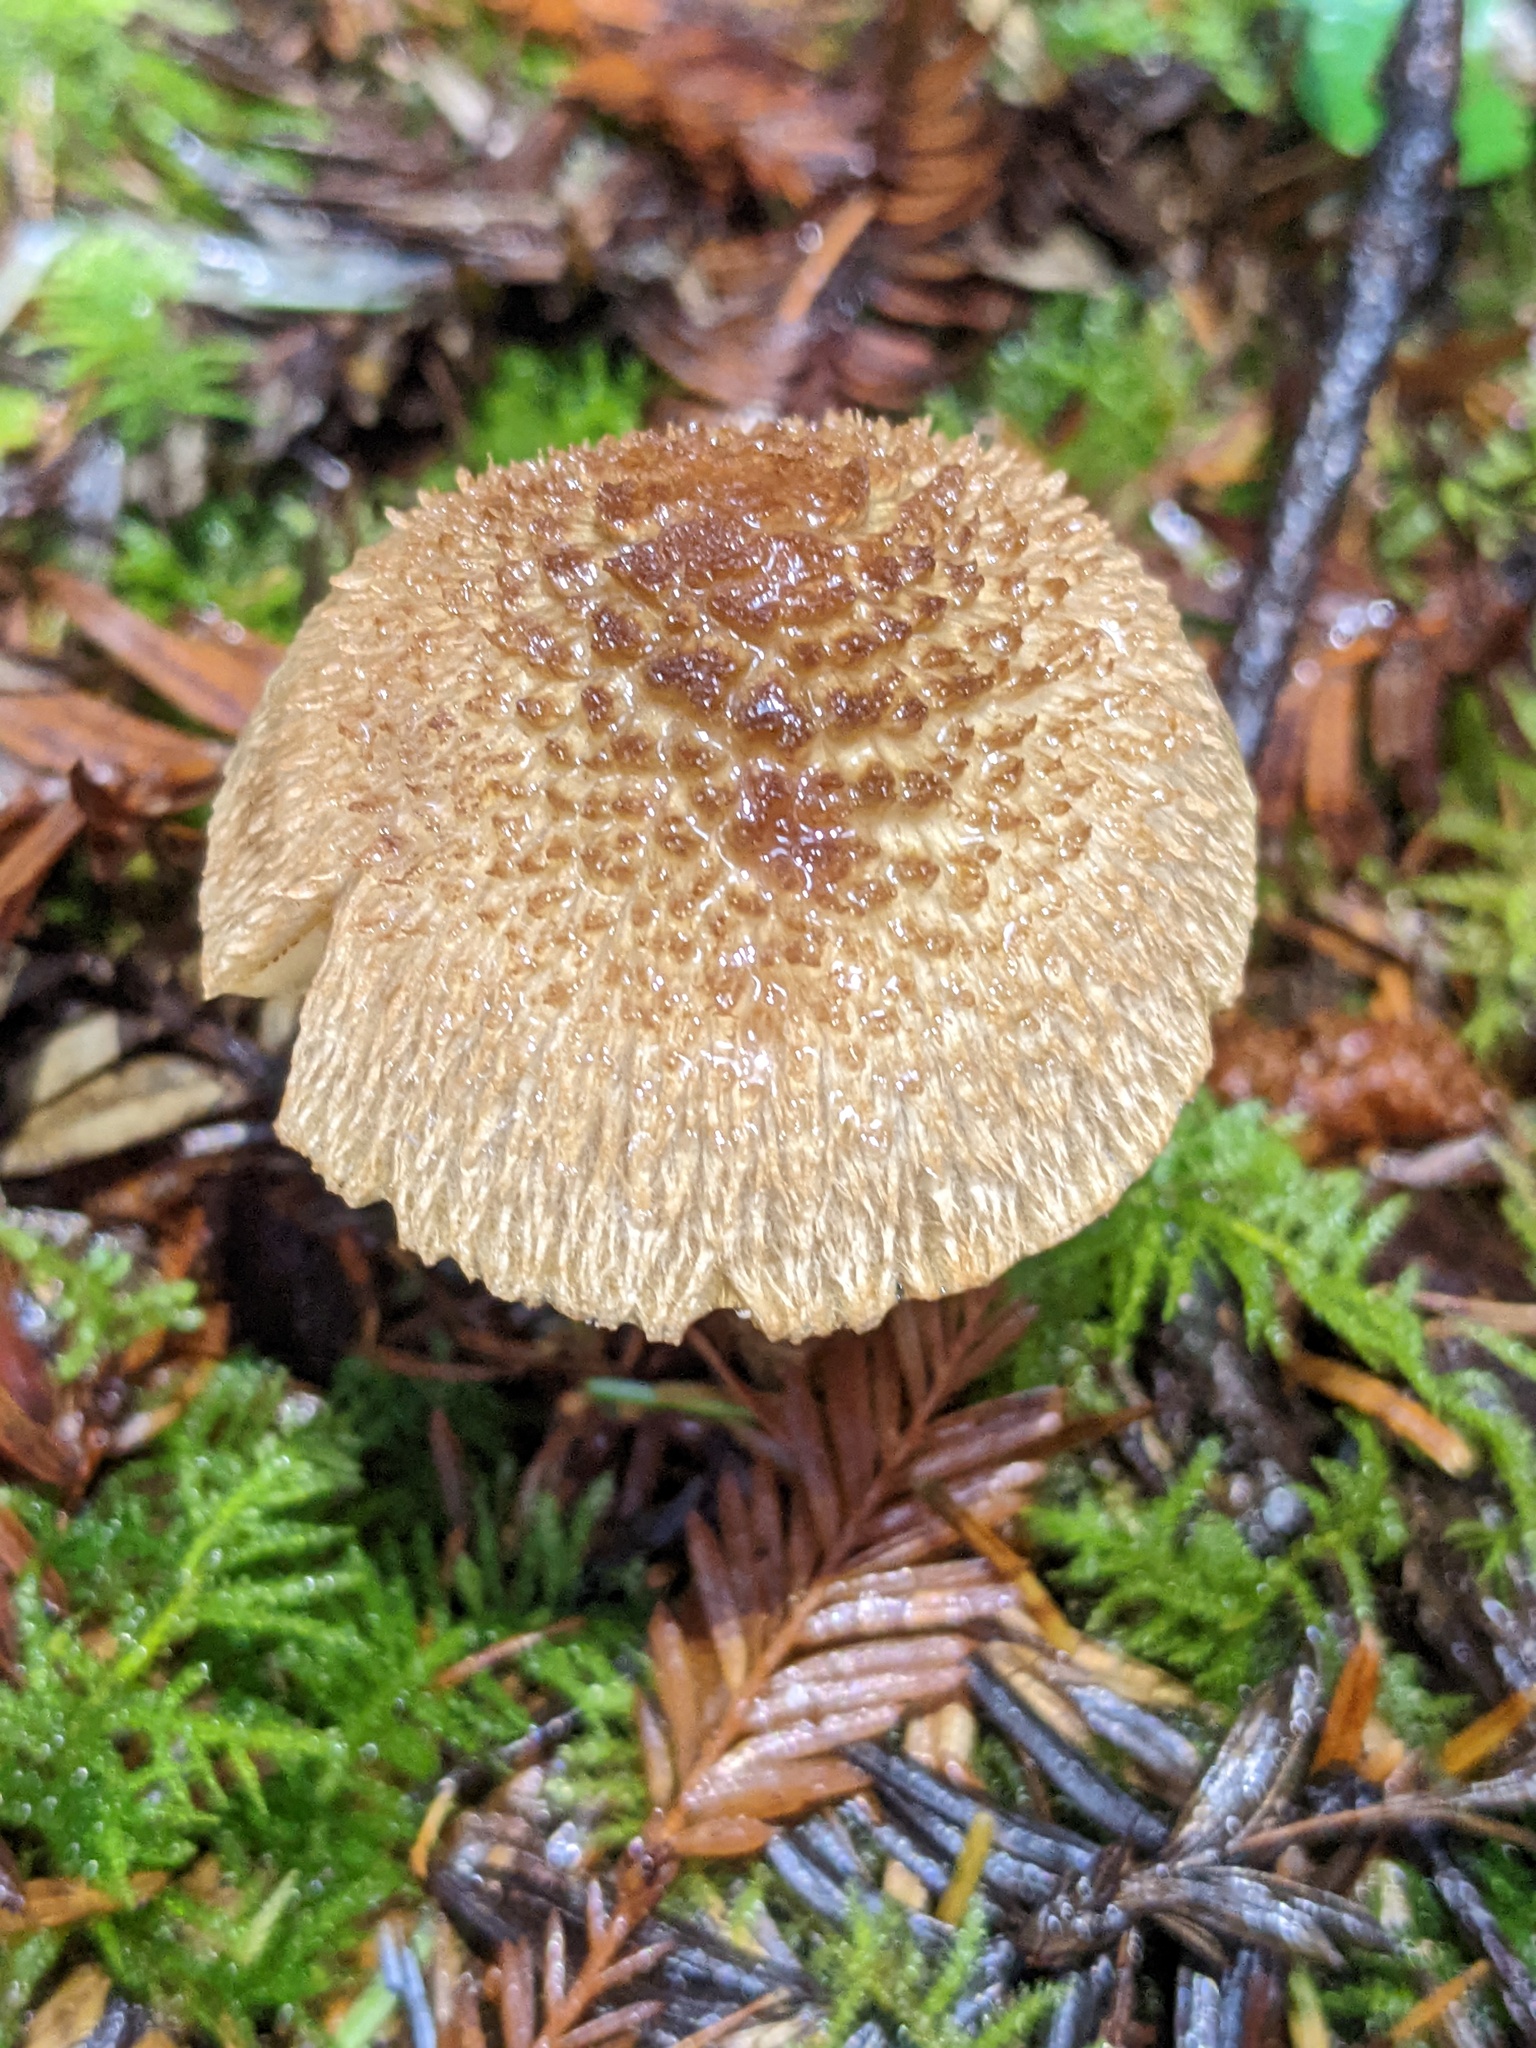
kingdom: Fungi
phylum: Basidiomycota
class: Agaricomycetes
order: Agaricales
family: Inocybaceae
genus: Inosperma
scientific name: Inosperma calamistratum
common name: Greenfoot fibrecap
